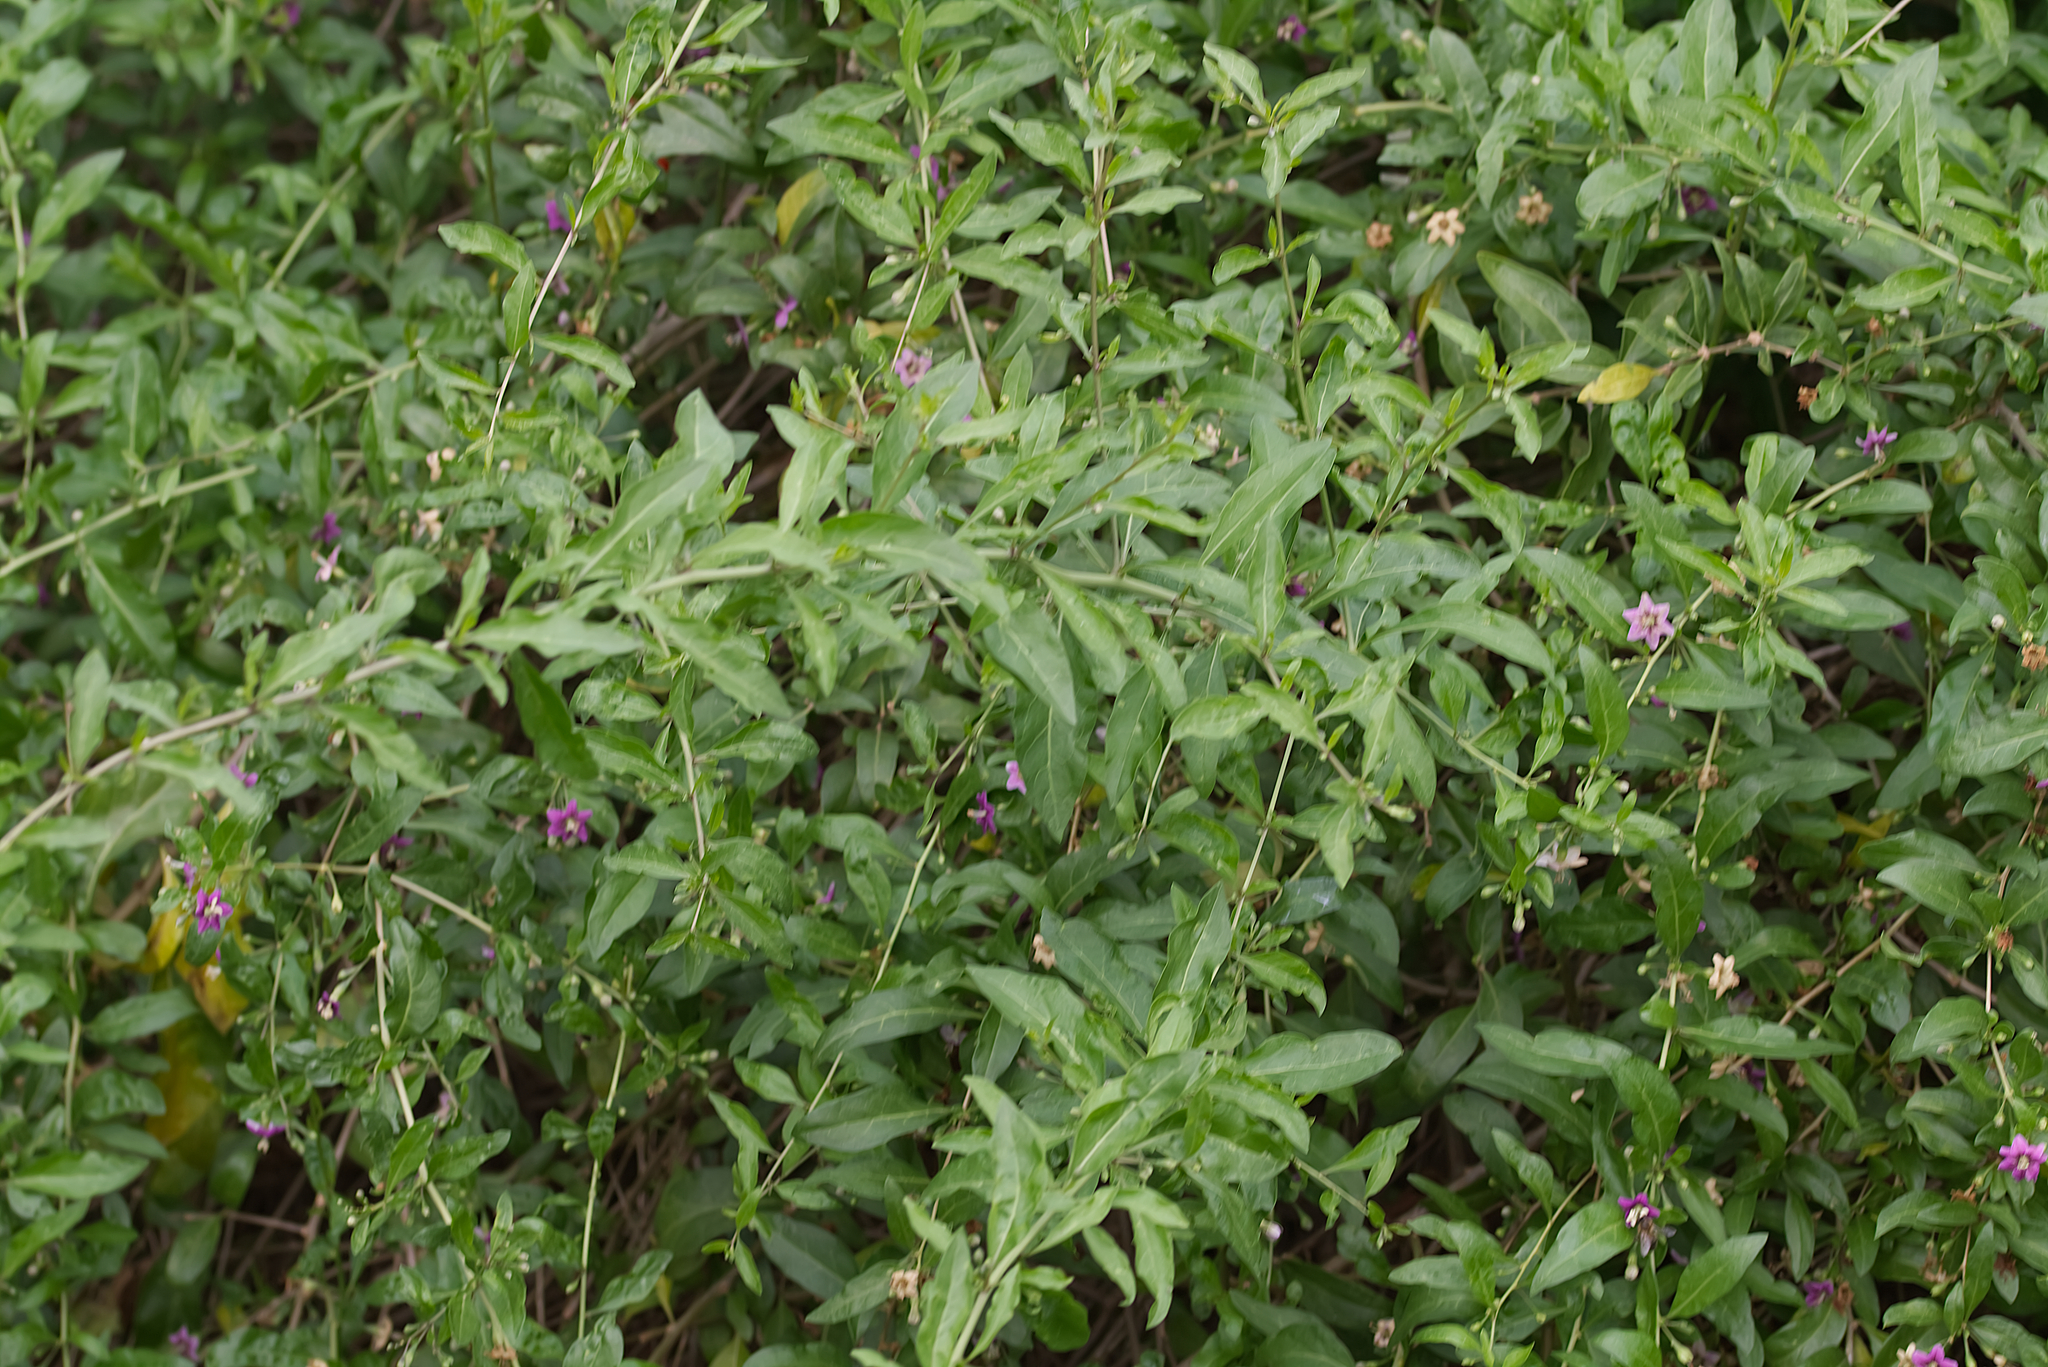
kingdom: Plantae
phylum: Tracheophyta
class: Magnoliopsida
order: Solanales
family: Solanaceae
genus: Lycium
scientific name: Lycium barbarum
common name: Duke of argyll's teaplant
